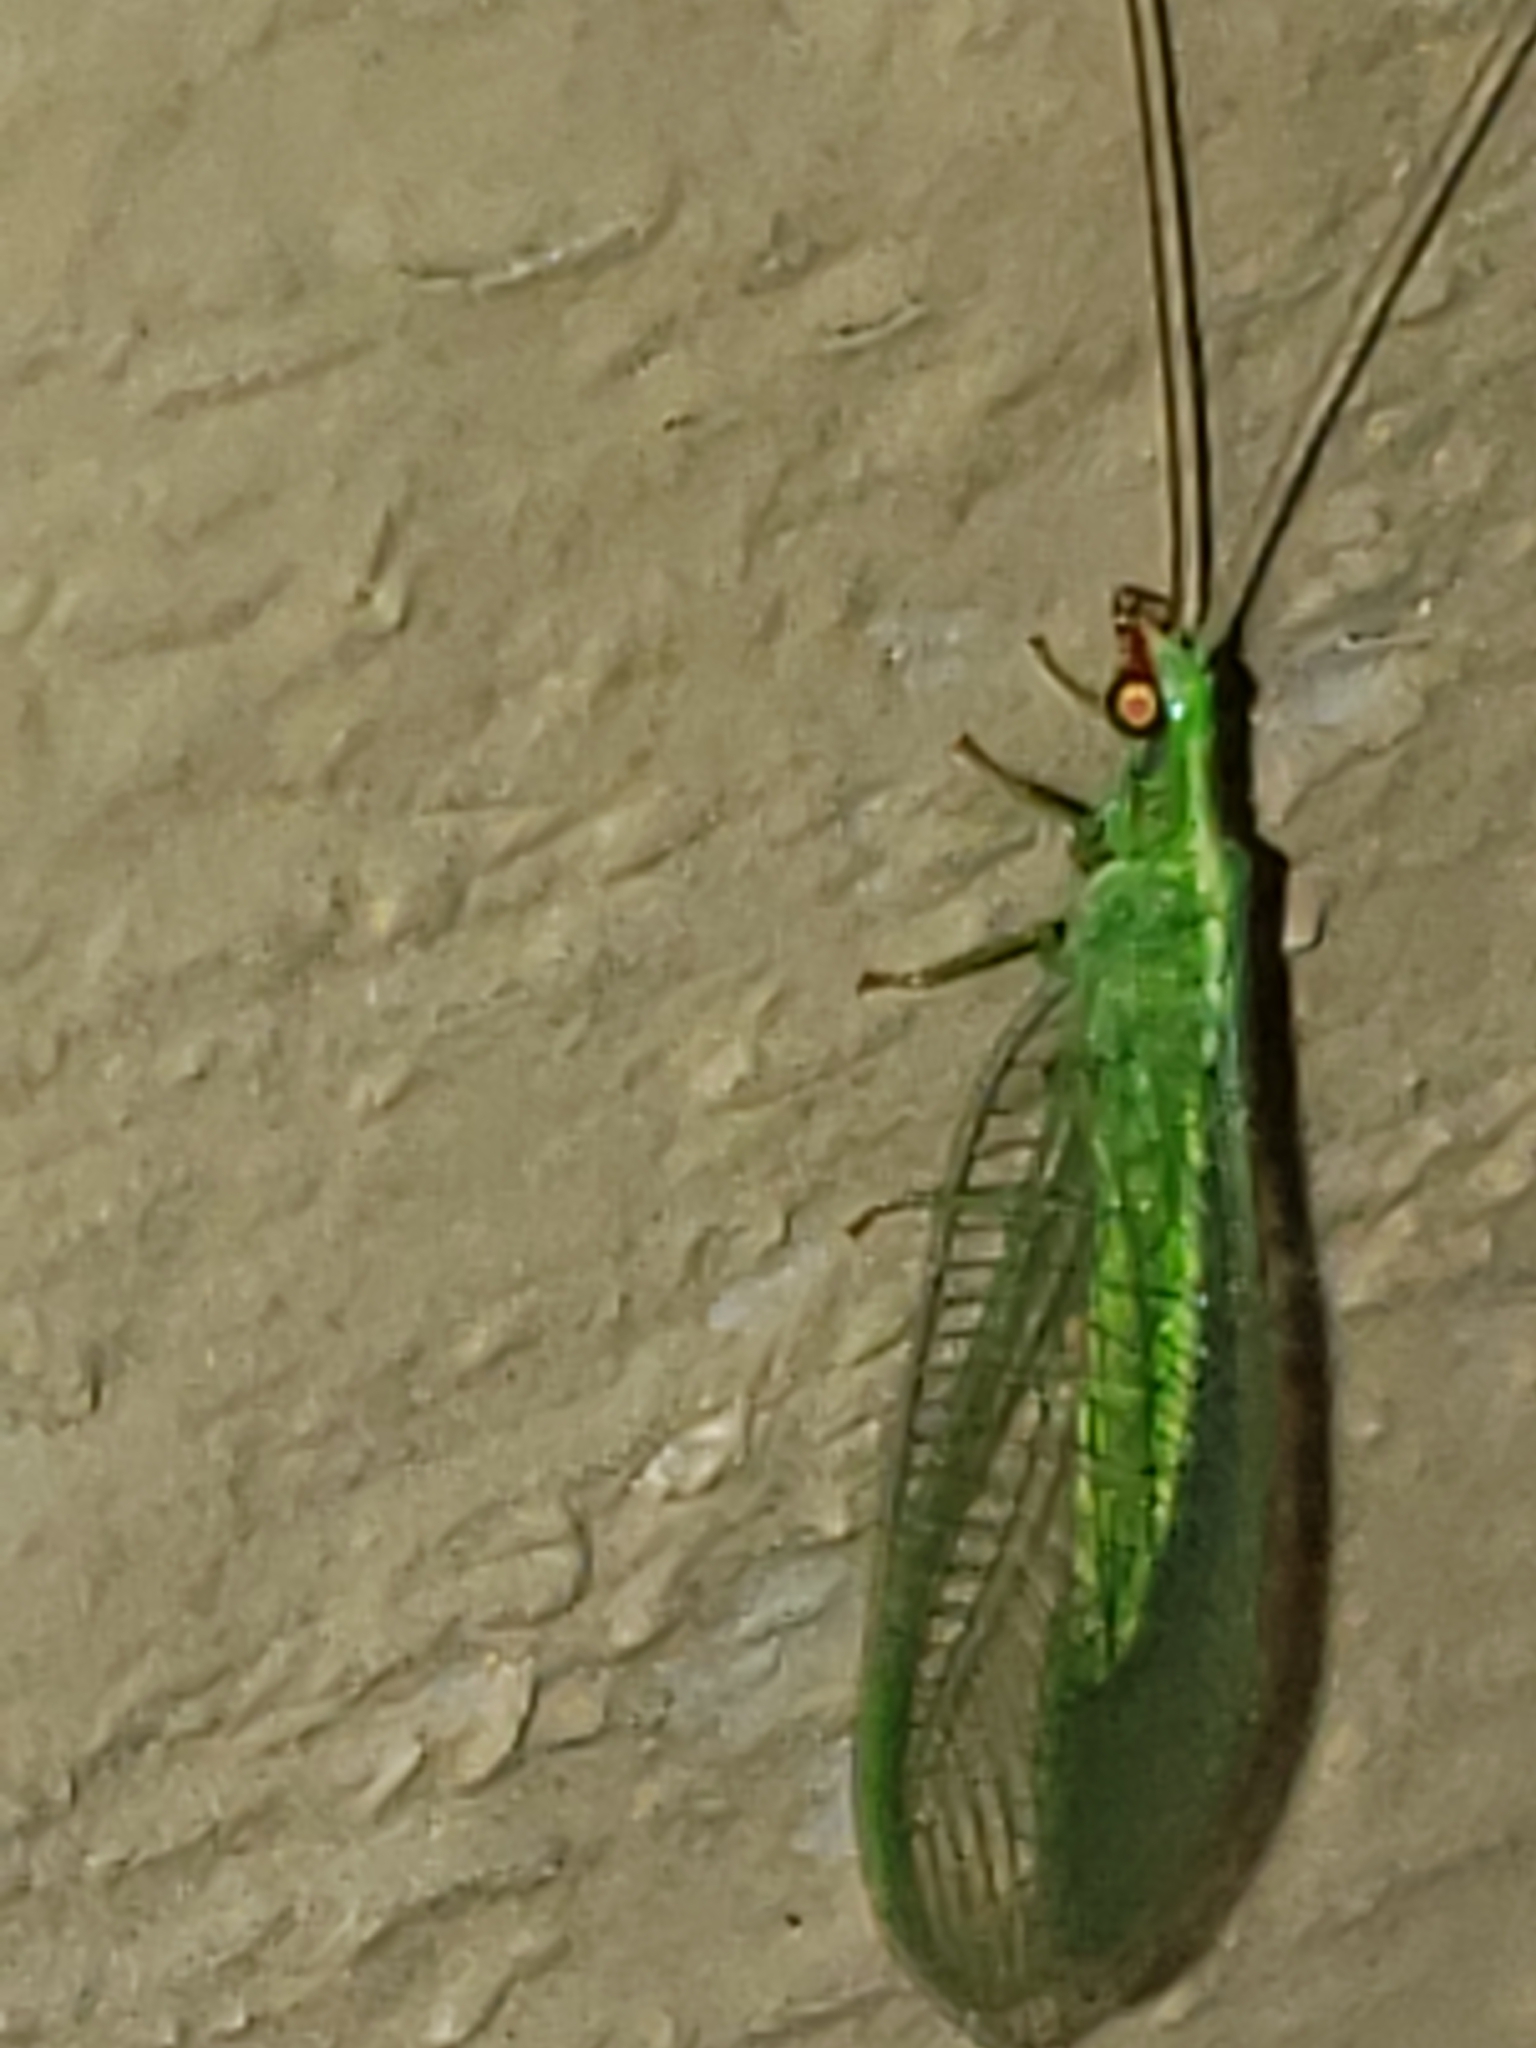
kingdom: Animalia
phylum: Arthropoda
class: Insecta
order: Neuroptera
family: Chrysopidae
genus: Chrysoperla
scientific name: Chrysoperla rufilabris
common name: Red-lipped green lacewing
